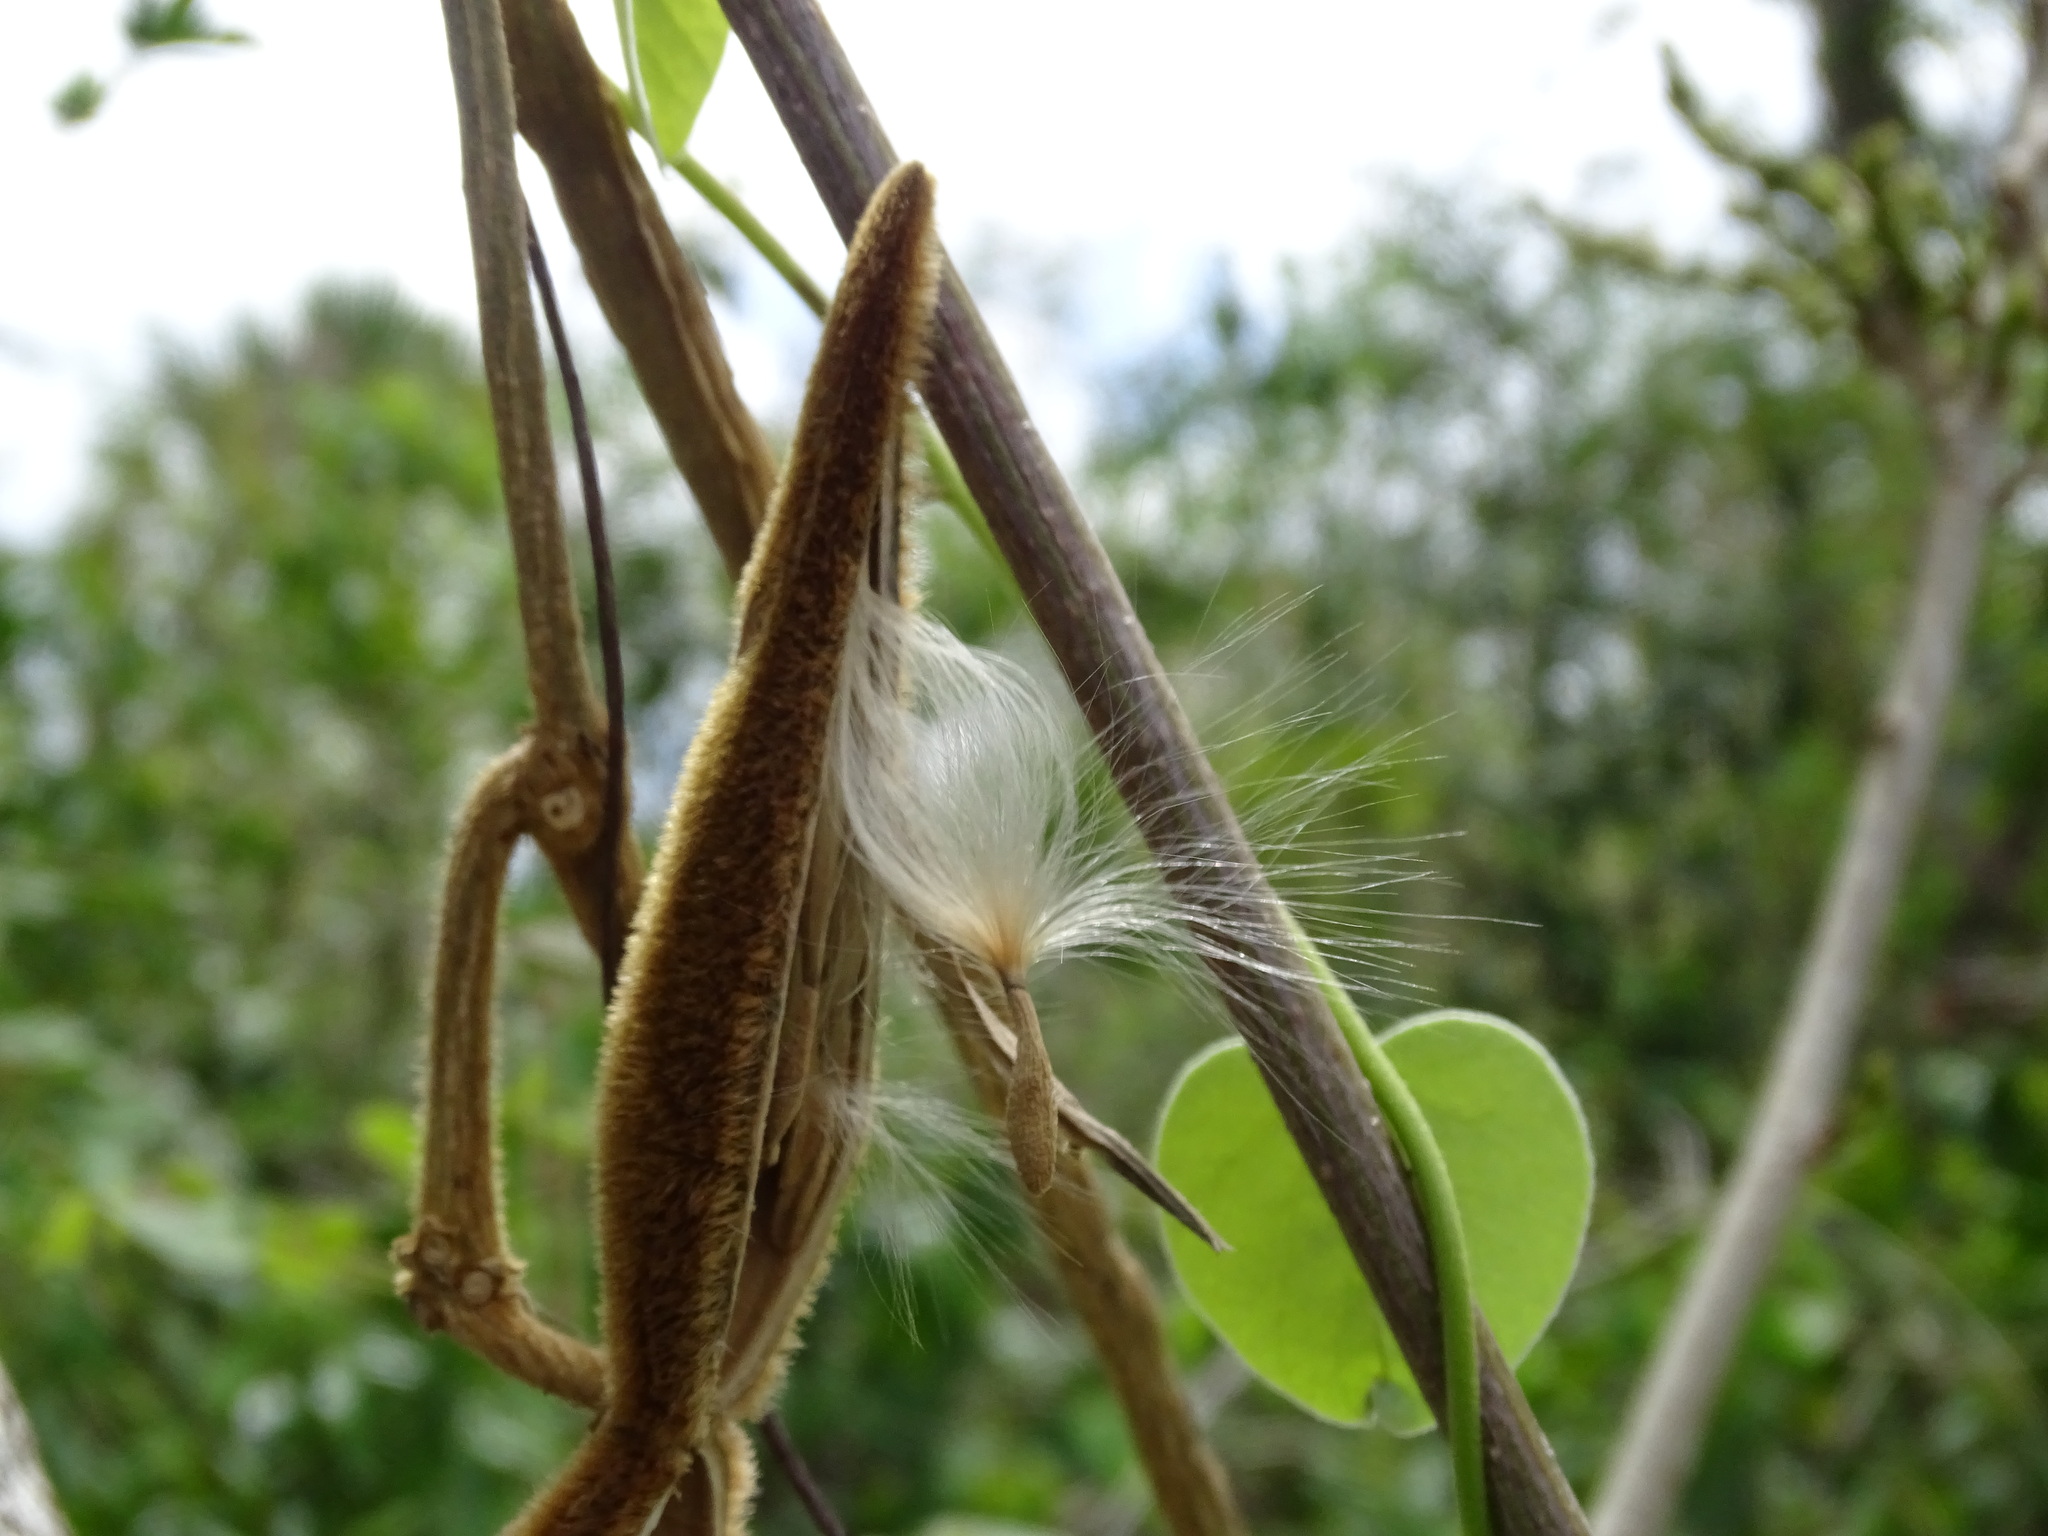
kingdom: Plantae
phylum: Tracheophyta
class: Magnoliopsida
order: Gentianales
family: Apocynaceae
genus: Prestonia
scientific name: Prestonia mexicana
